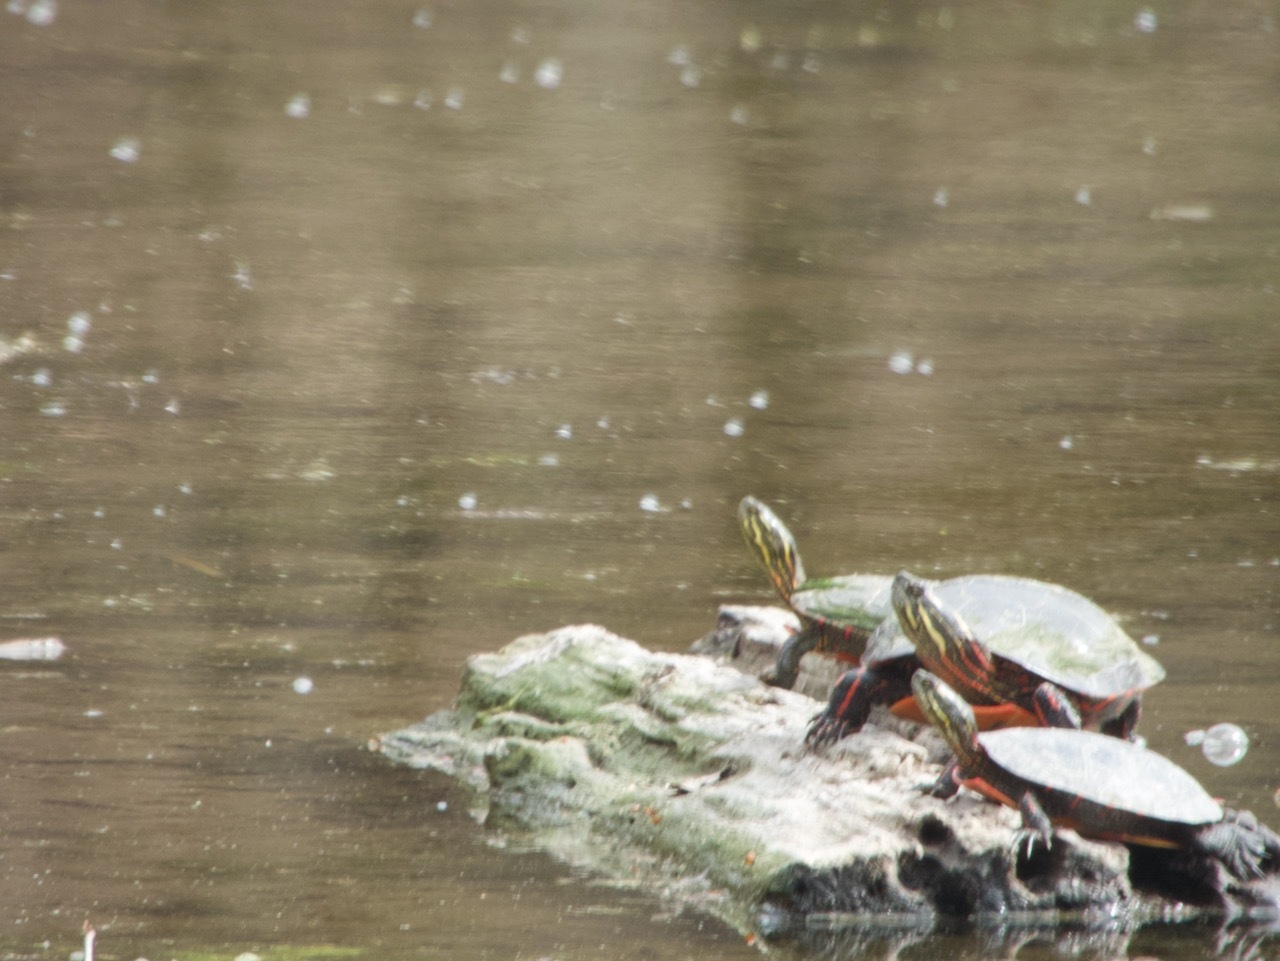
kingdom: Animalia
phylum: Chordata
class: Testudines
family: Emydidae
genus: Chrysemys
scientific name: Chrysemys picta
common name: Painted turtle
